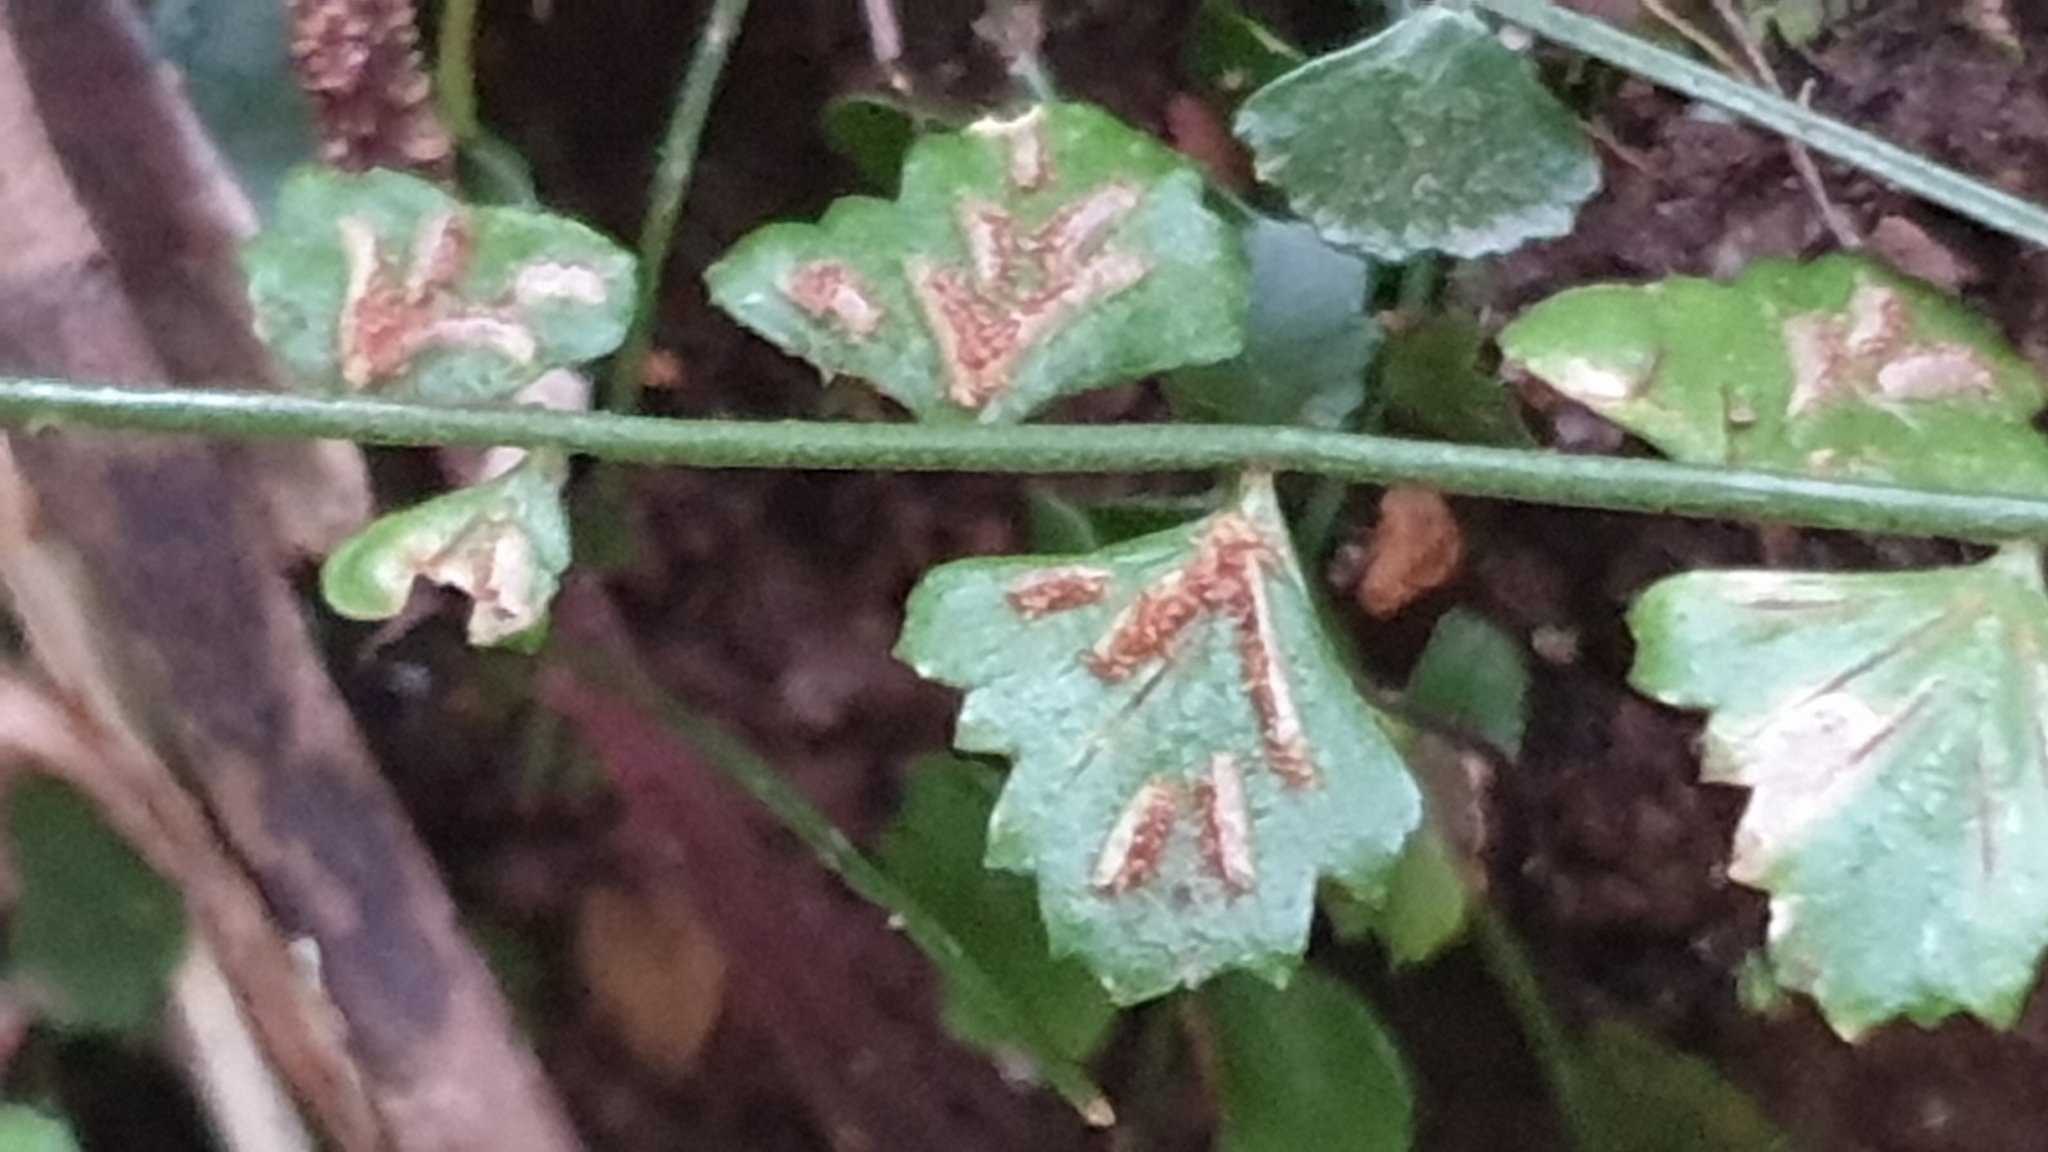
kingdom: Plantae
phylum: Tracheophyta
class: Polypodiopsida
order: Polypodiales
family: Aspleniaceae
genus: Asplenium
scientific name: Asplenium flabellifolium
